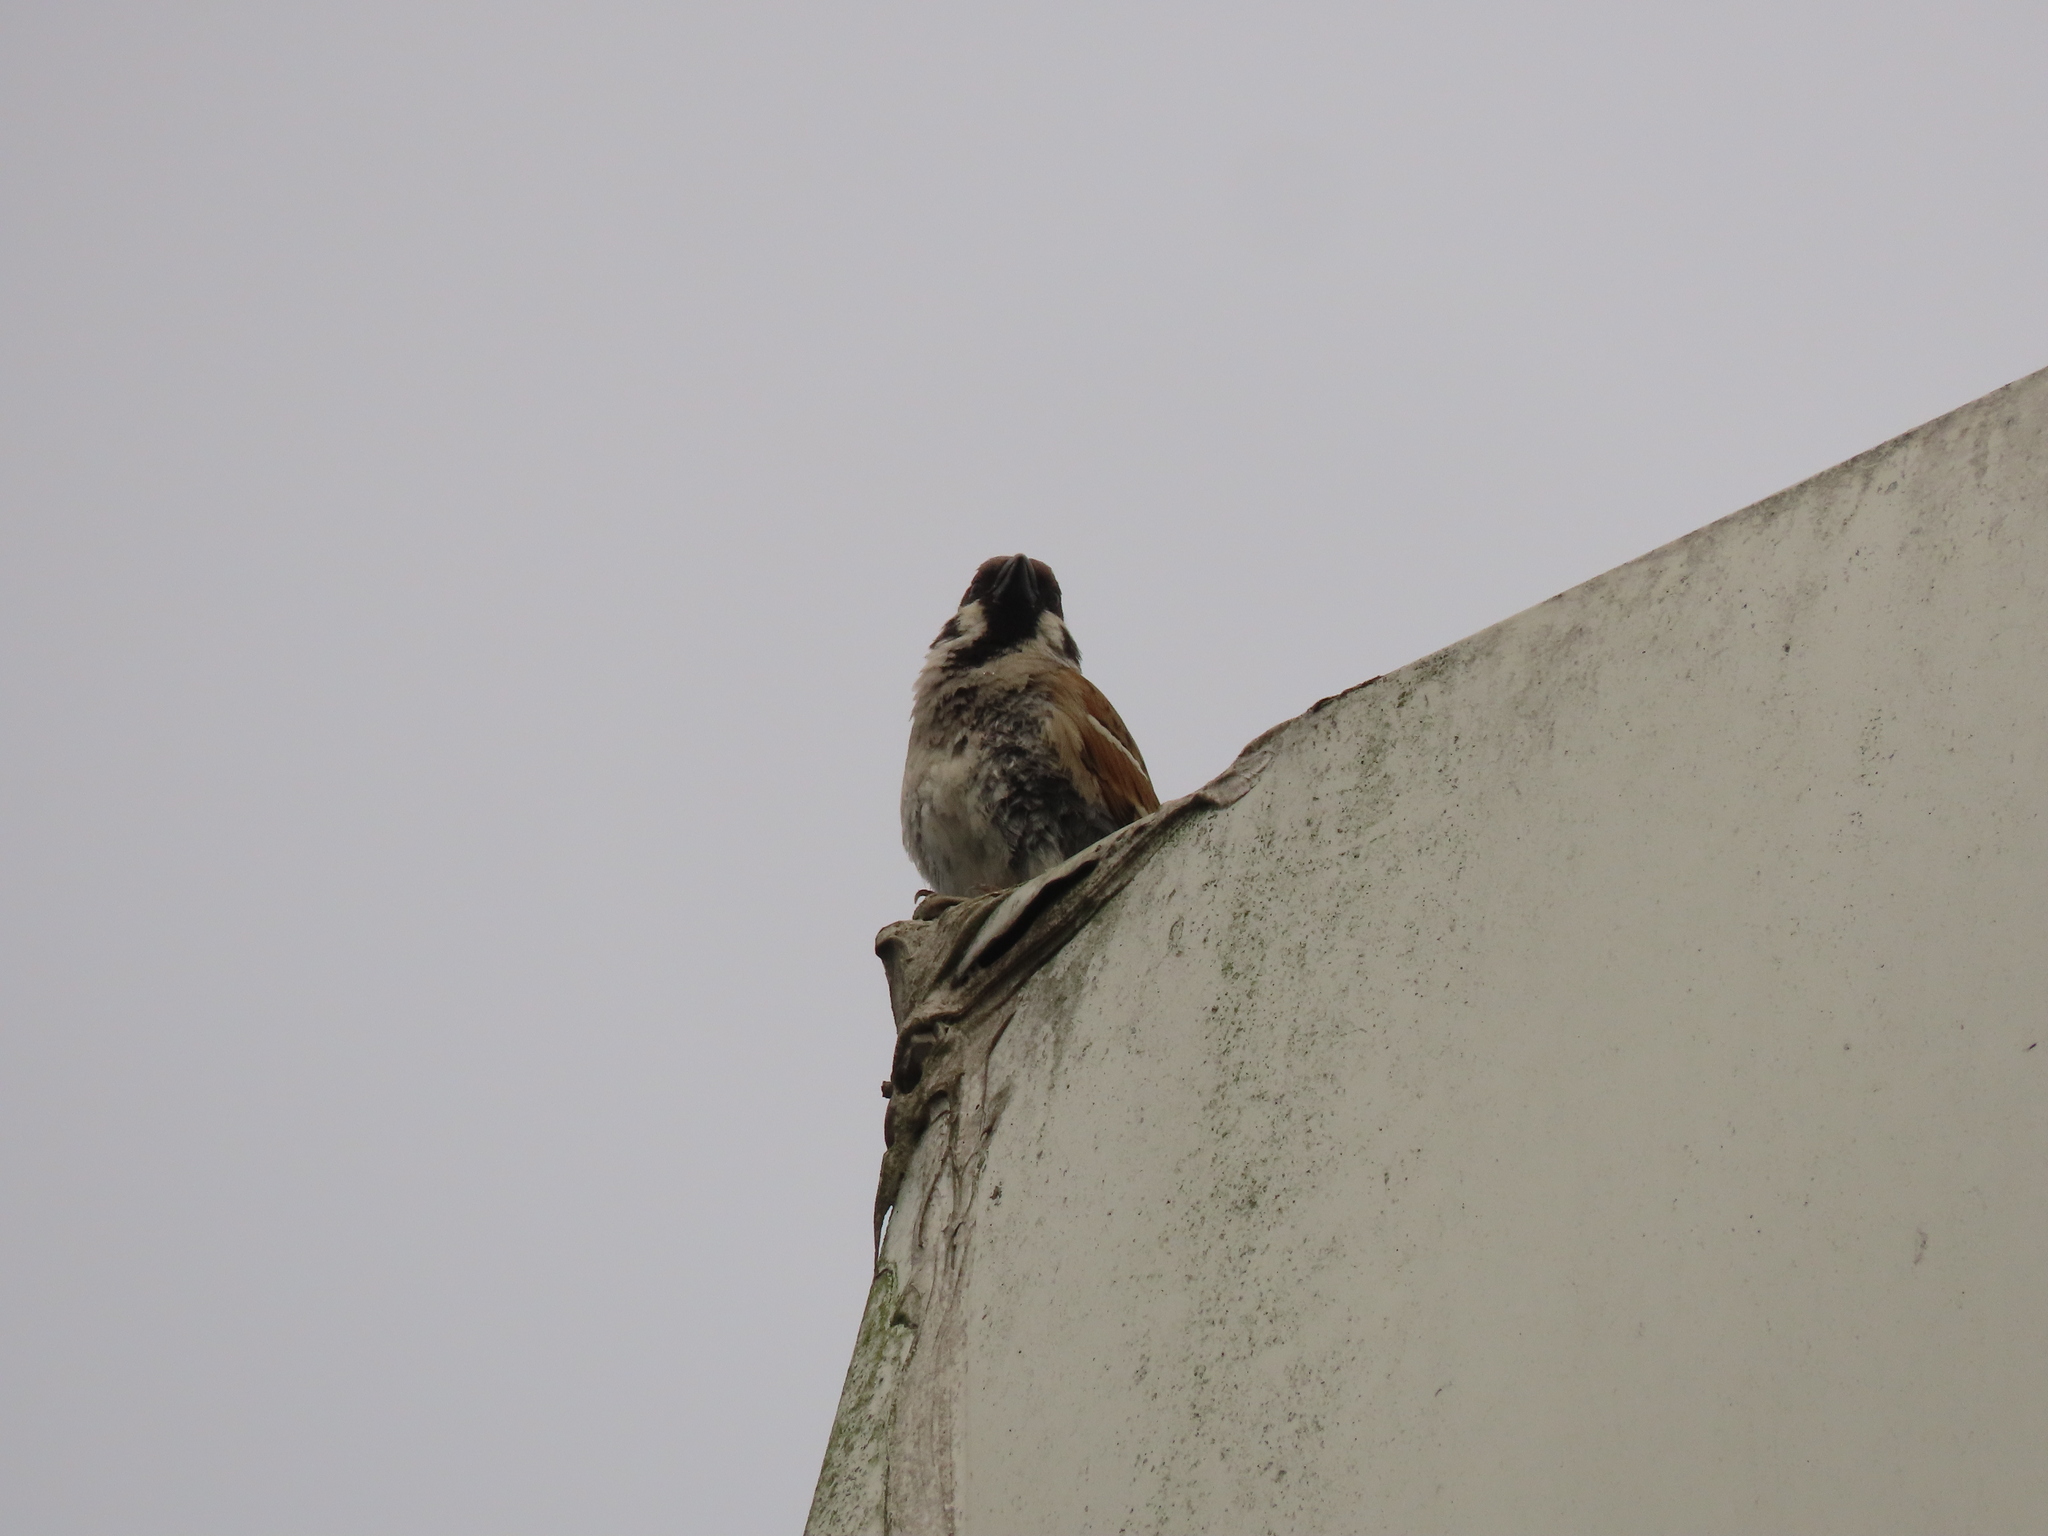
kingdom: Animalia
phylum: Chordata
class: Aves
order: Passeriformes
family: Passeridae
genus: Passer
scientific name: Passer montanus
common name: Eurasian tree sparrow
